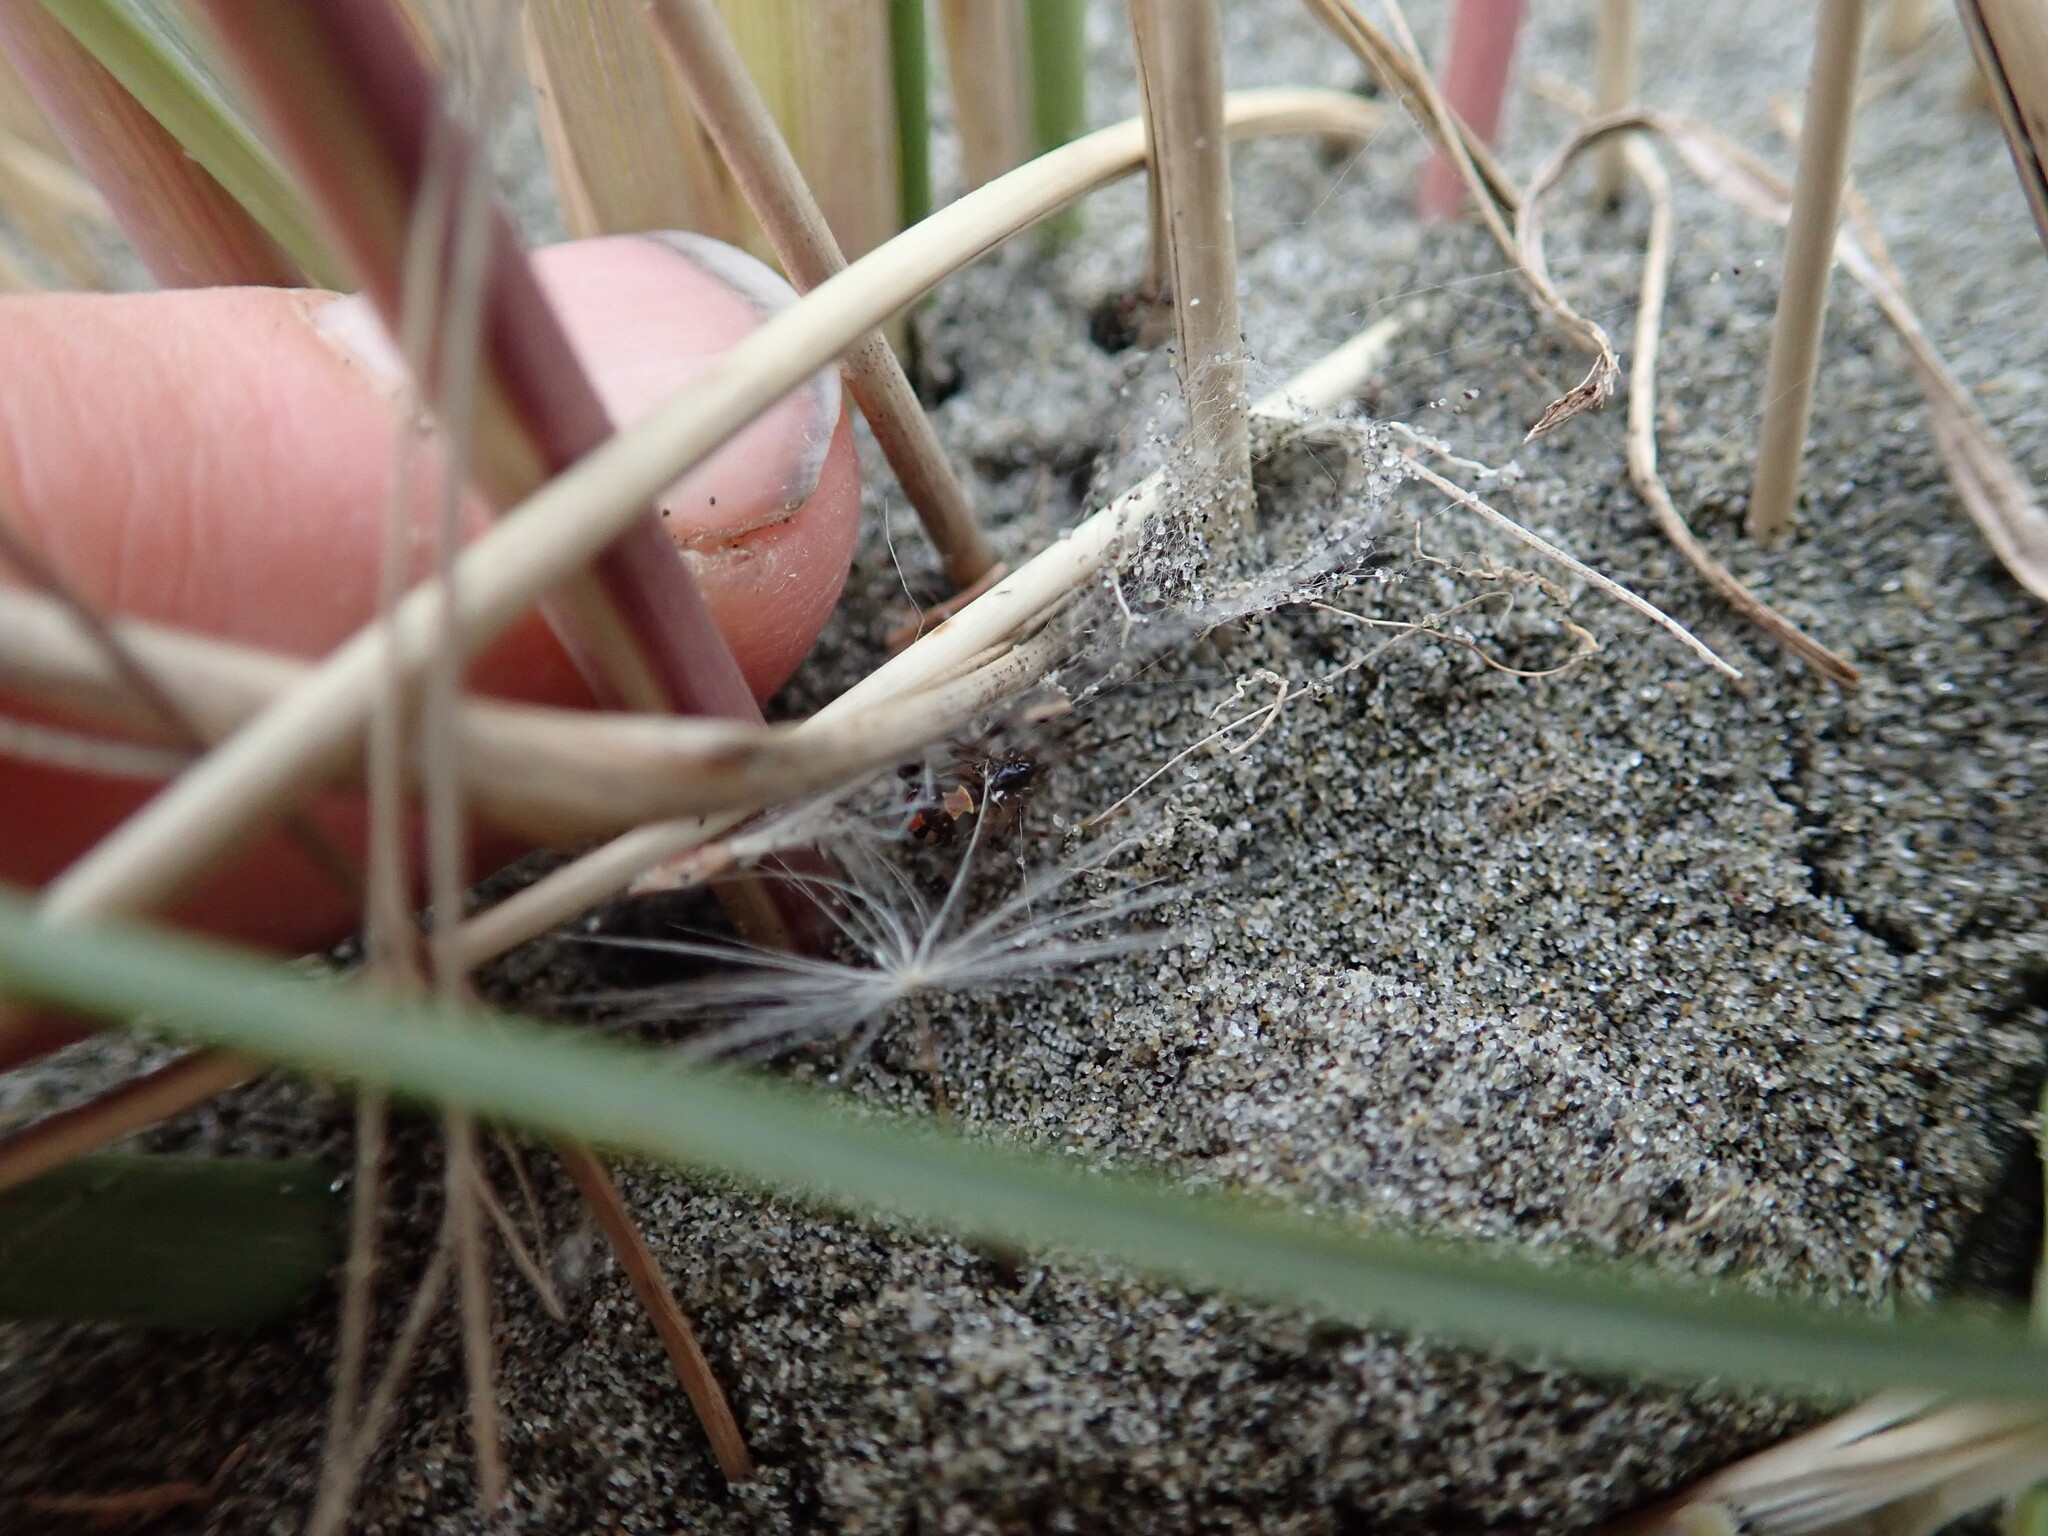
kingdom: Animalia
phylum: Arthropoda
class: Arachnida
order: Araneae
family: Theridiidae
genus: Latrodectus
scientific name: Latrodectus katipo
